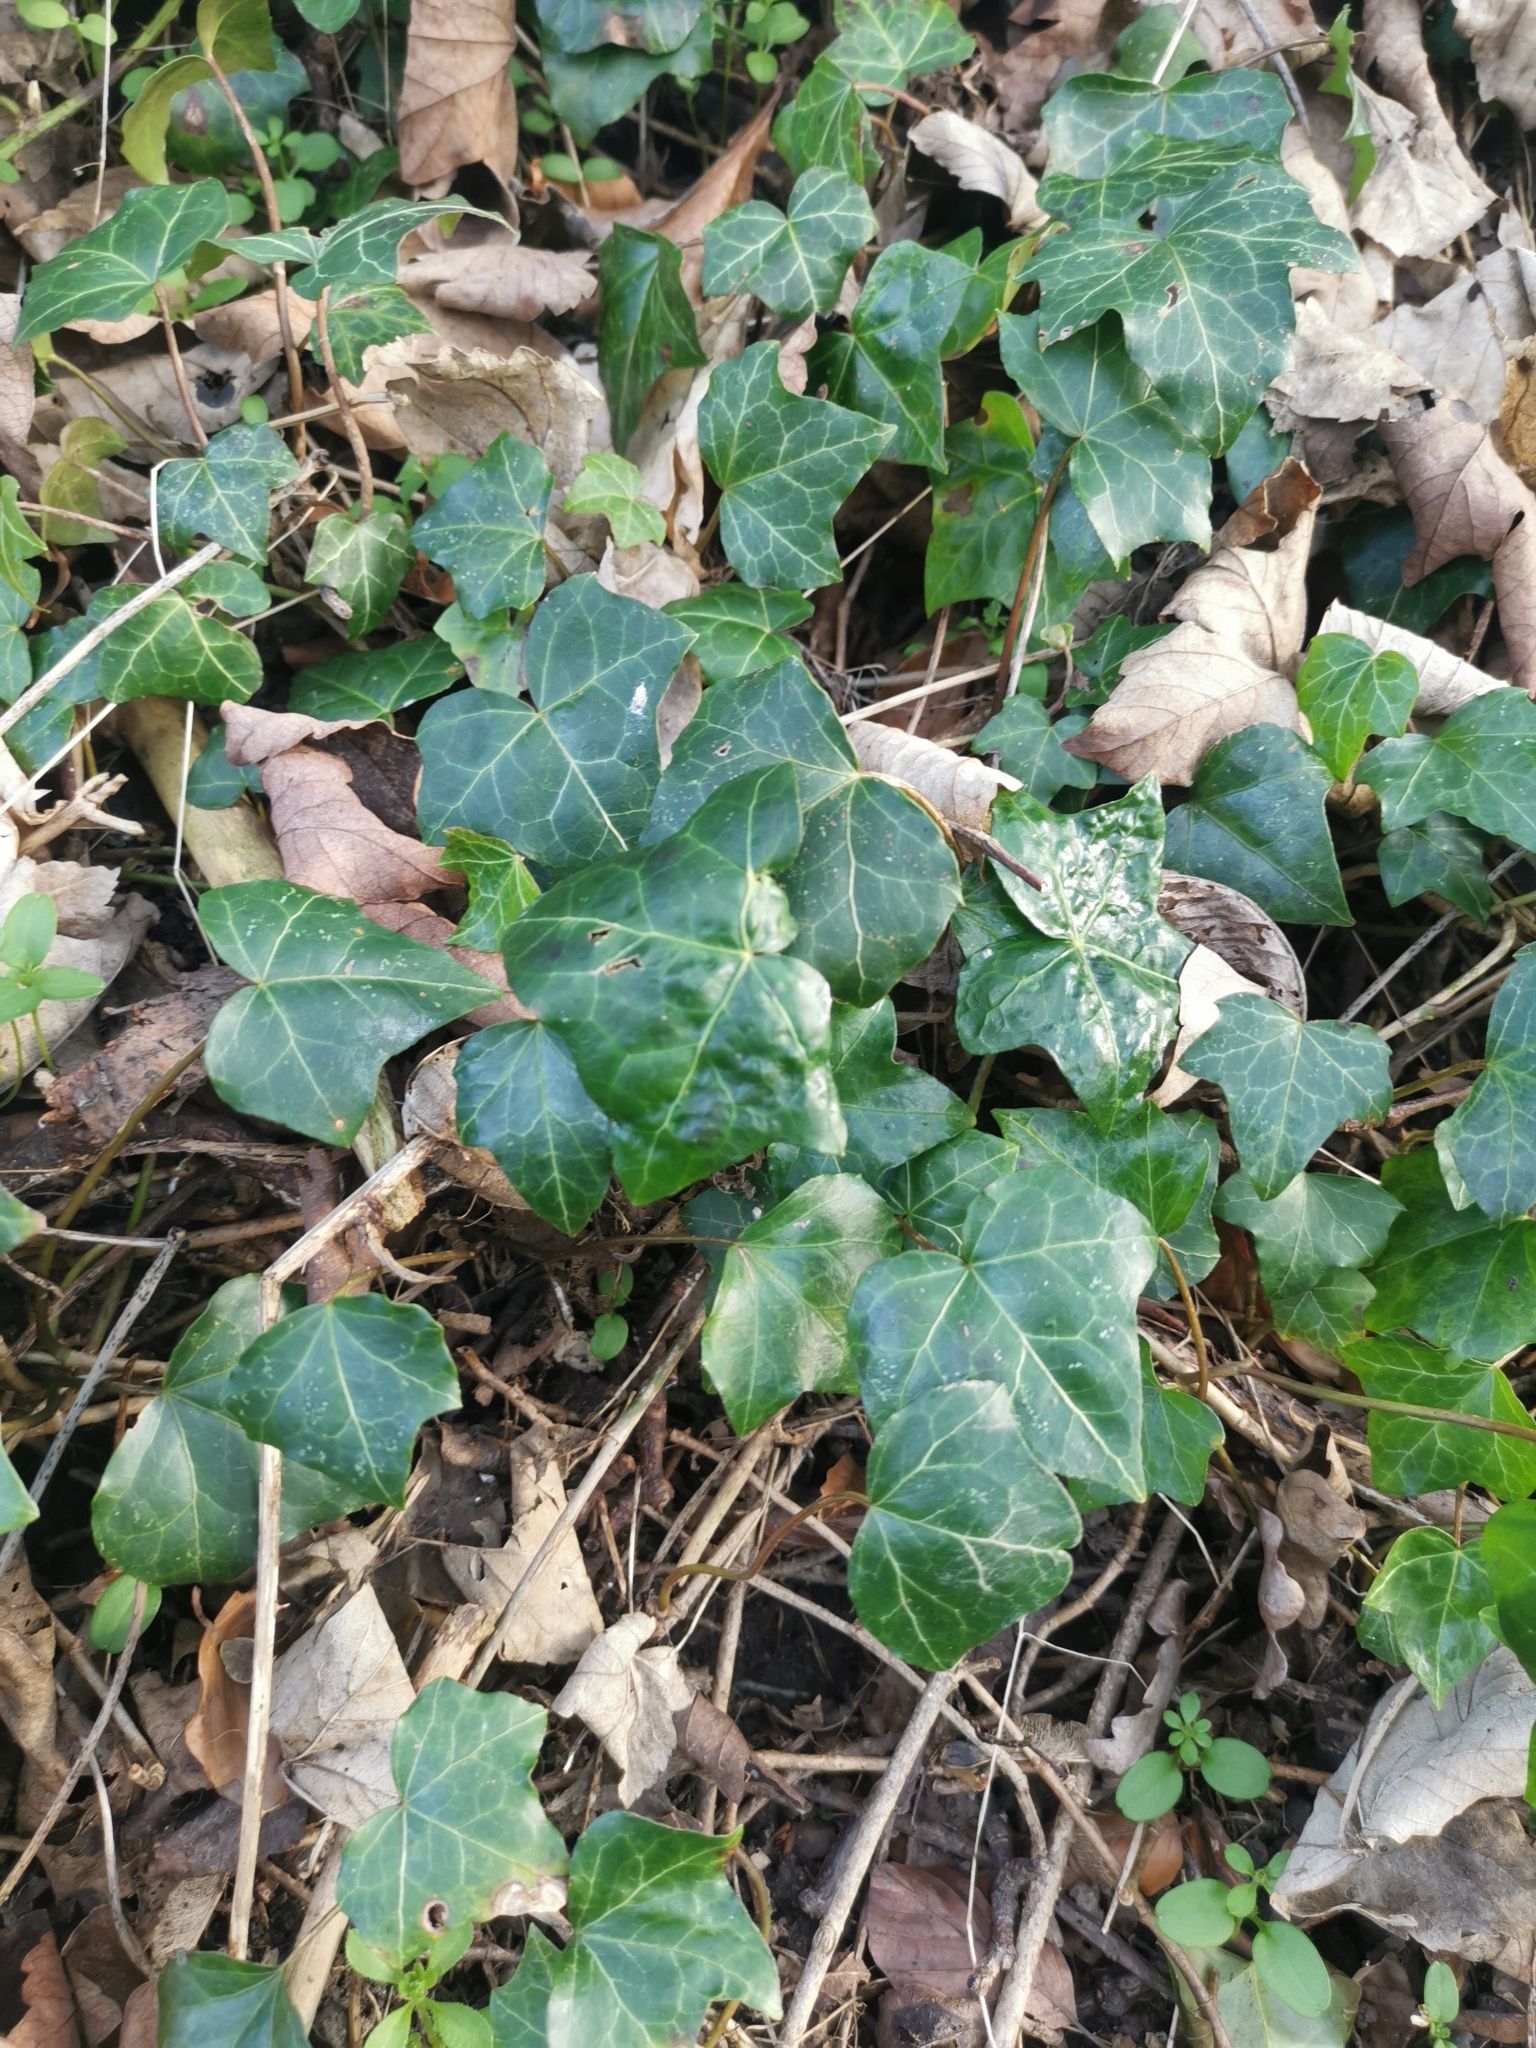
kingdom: Plantae
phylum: Tracheophyta
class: Magnoliopsida
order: Apiales
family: Araliaceae
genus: Hedera
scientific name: Hedera helix
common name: Ivy
